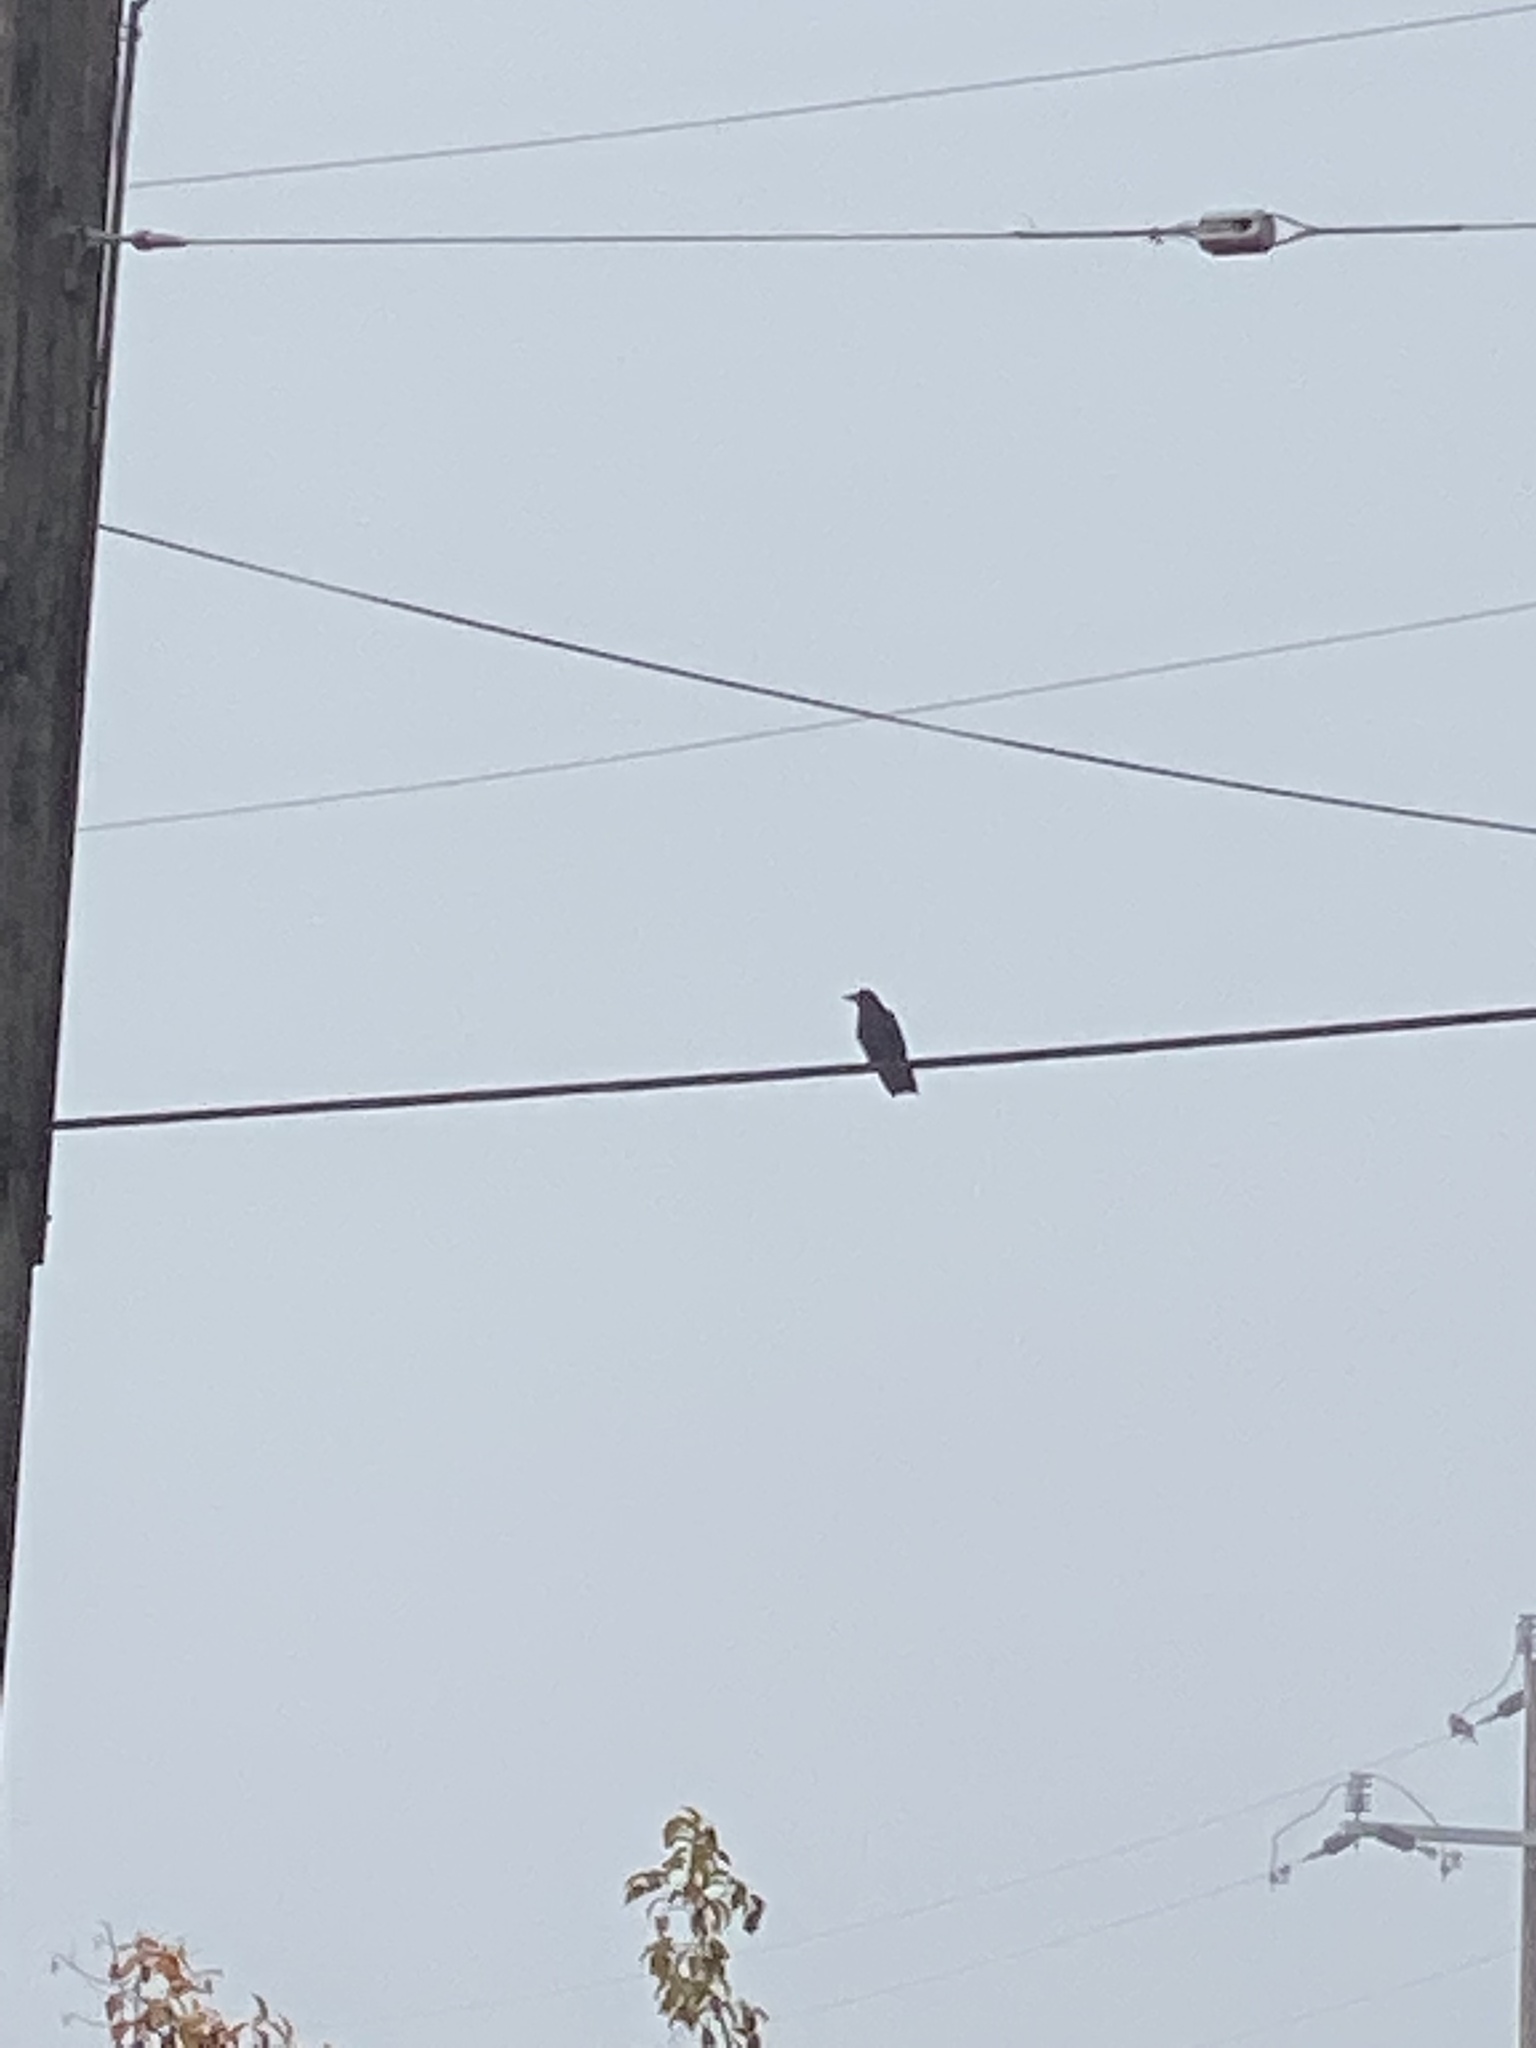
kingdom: Animalia
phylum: Chordata
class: Aves
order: Passeriformes
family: Corvidae
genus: Corvus
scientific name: Corvus brachyrhynchos
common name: American crow
